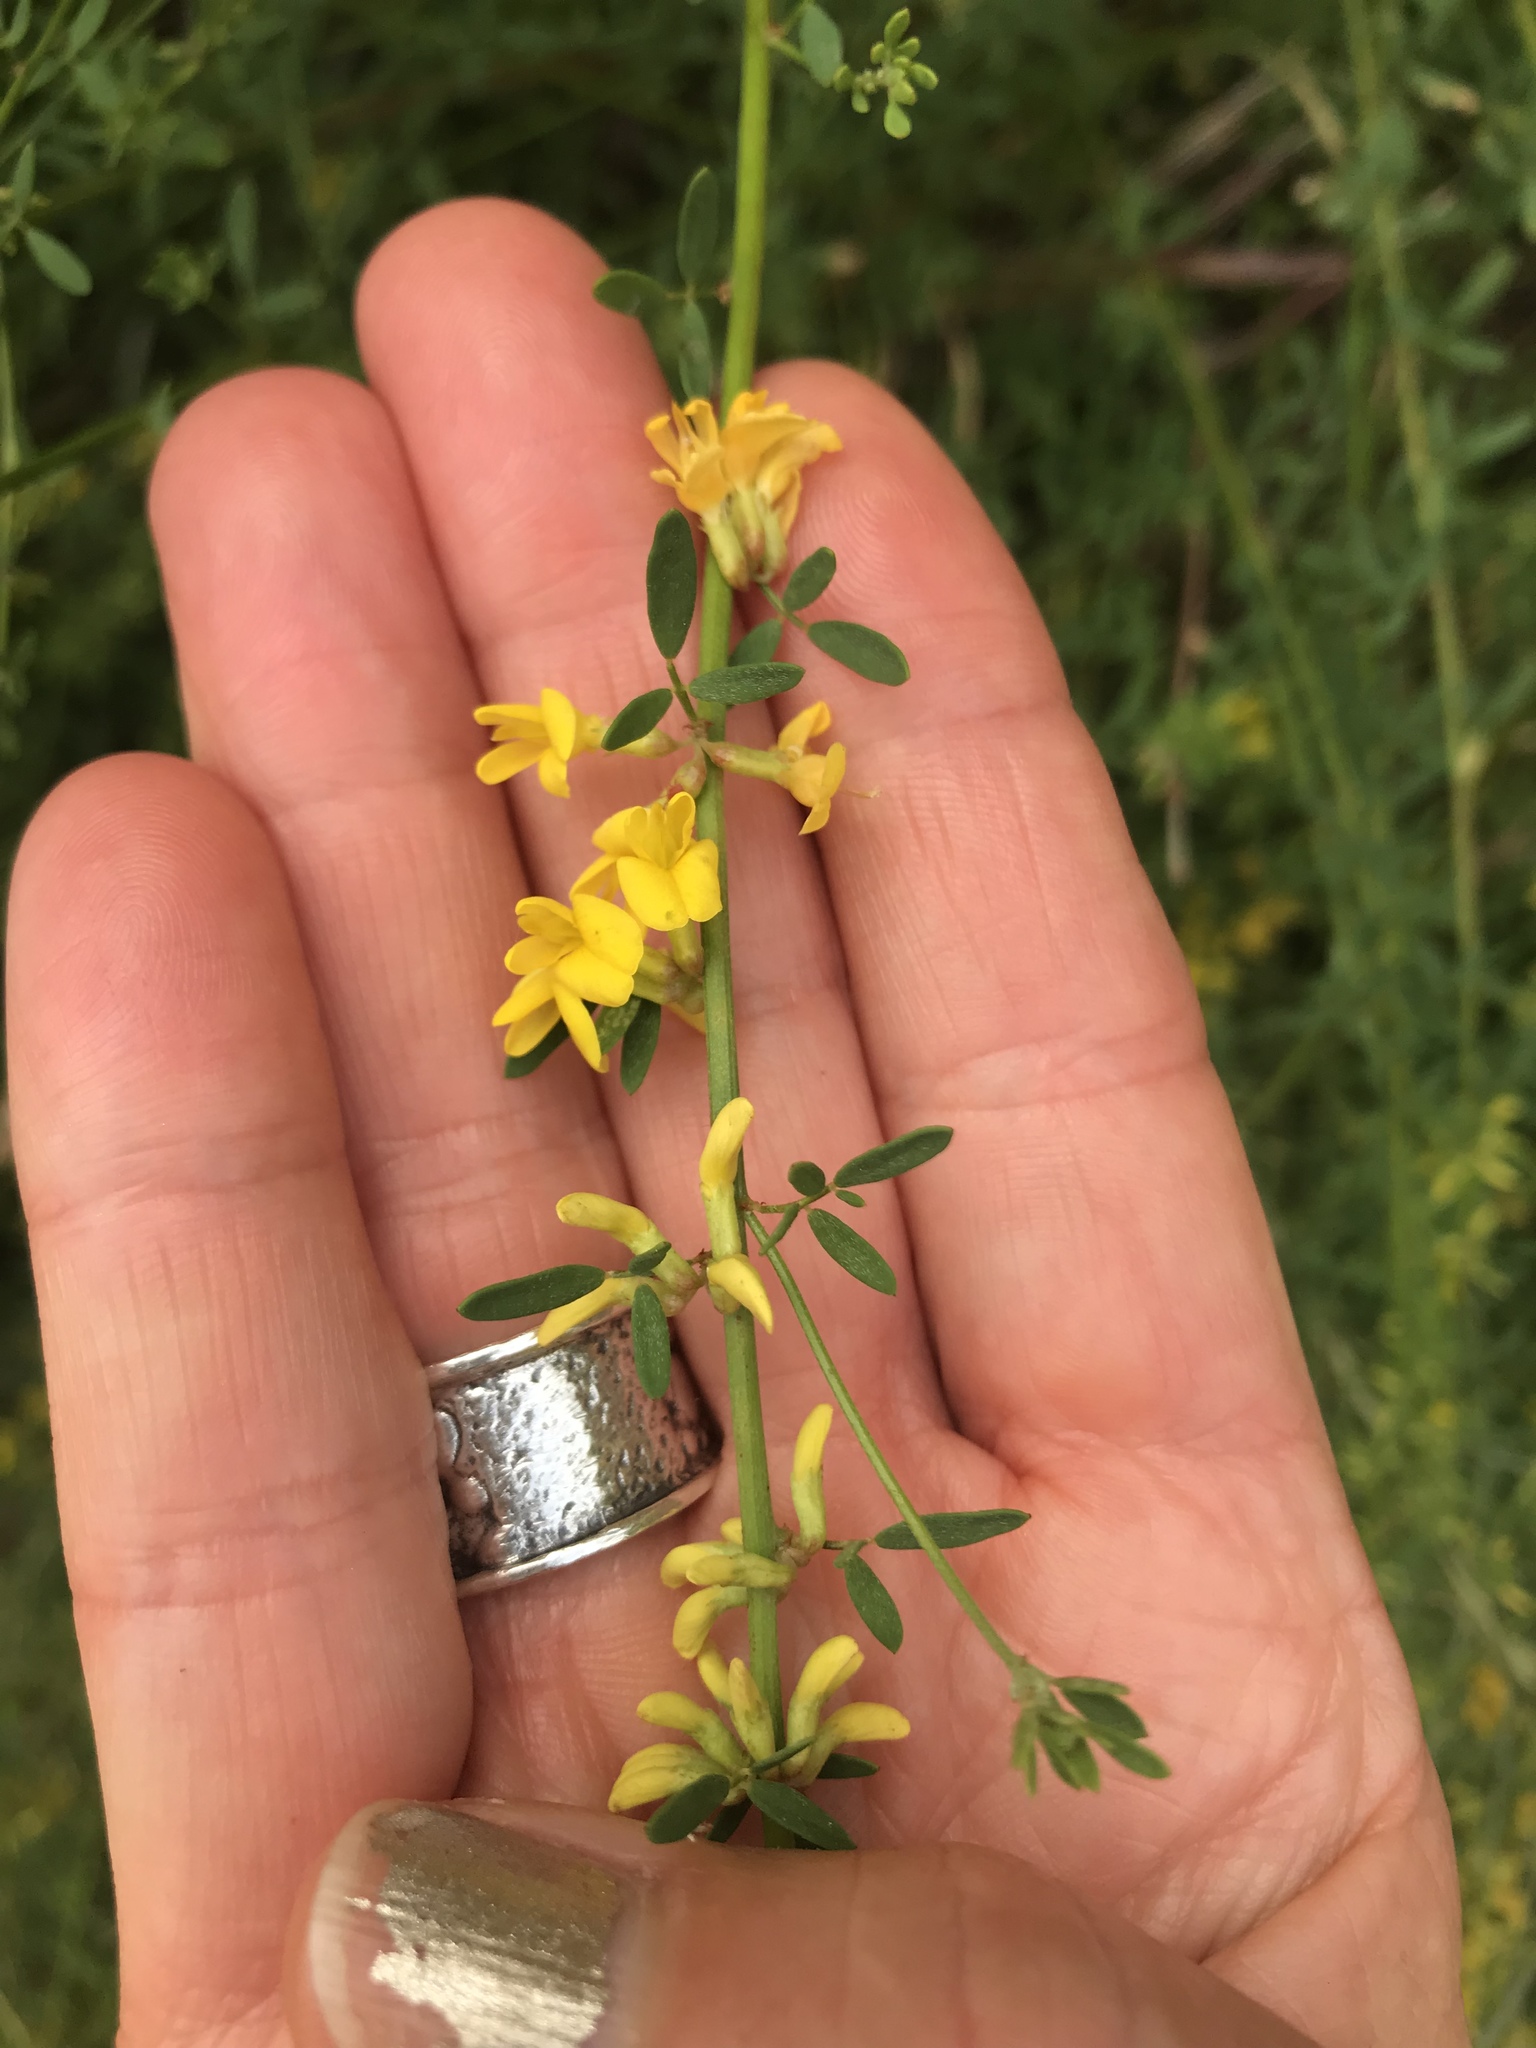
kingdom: Plantae
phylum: Tracheophyta
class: Magnoliopsida
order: Fabales
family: Fabaceae
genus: Acmispon
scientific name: Acmispon glaber
